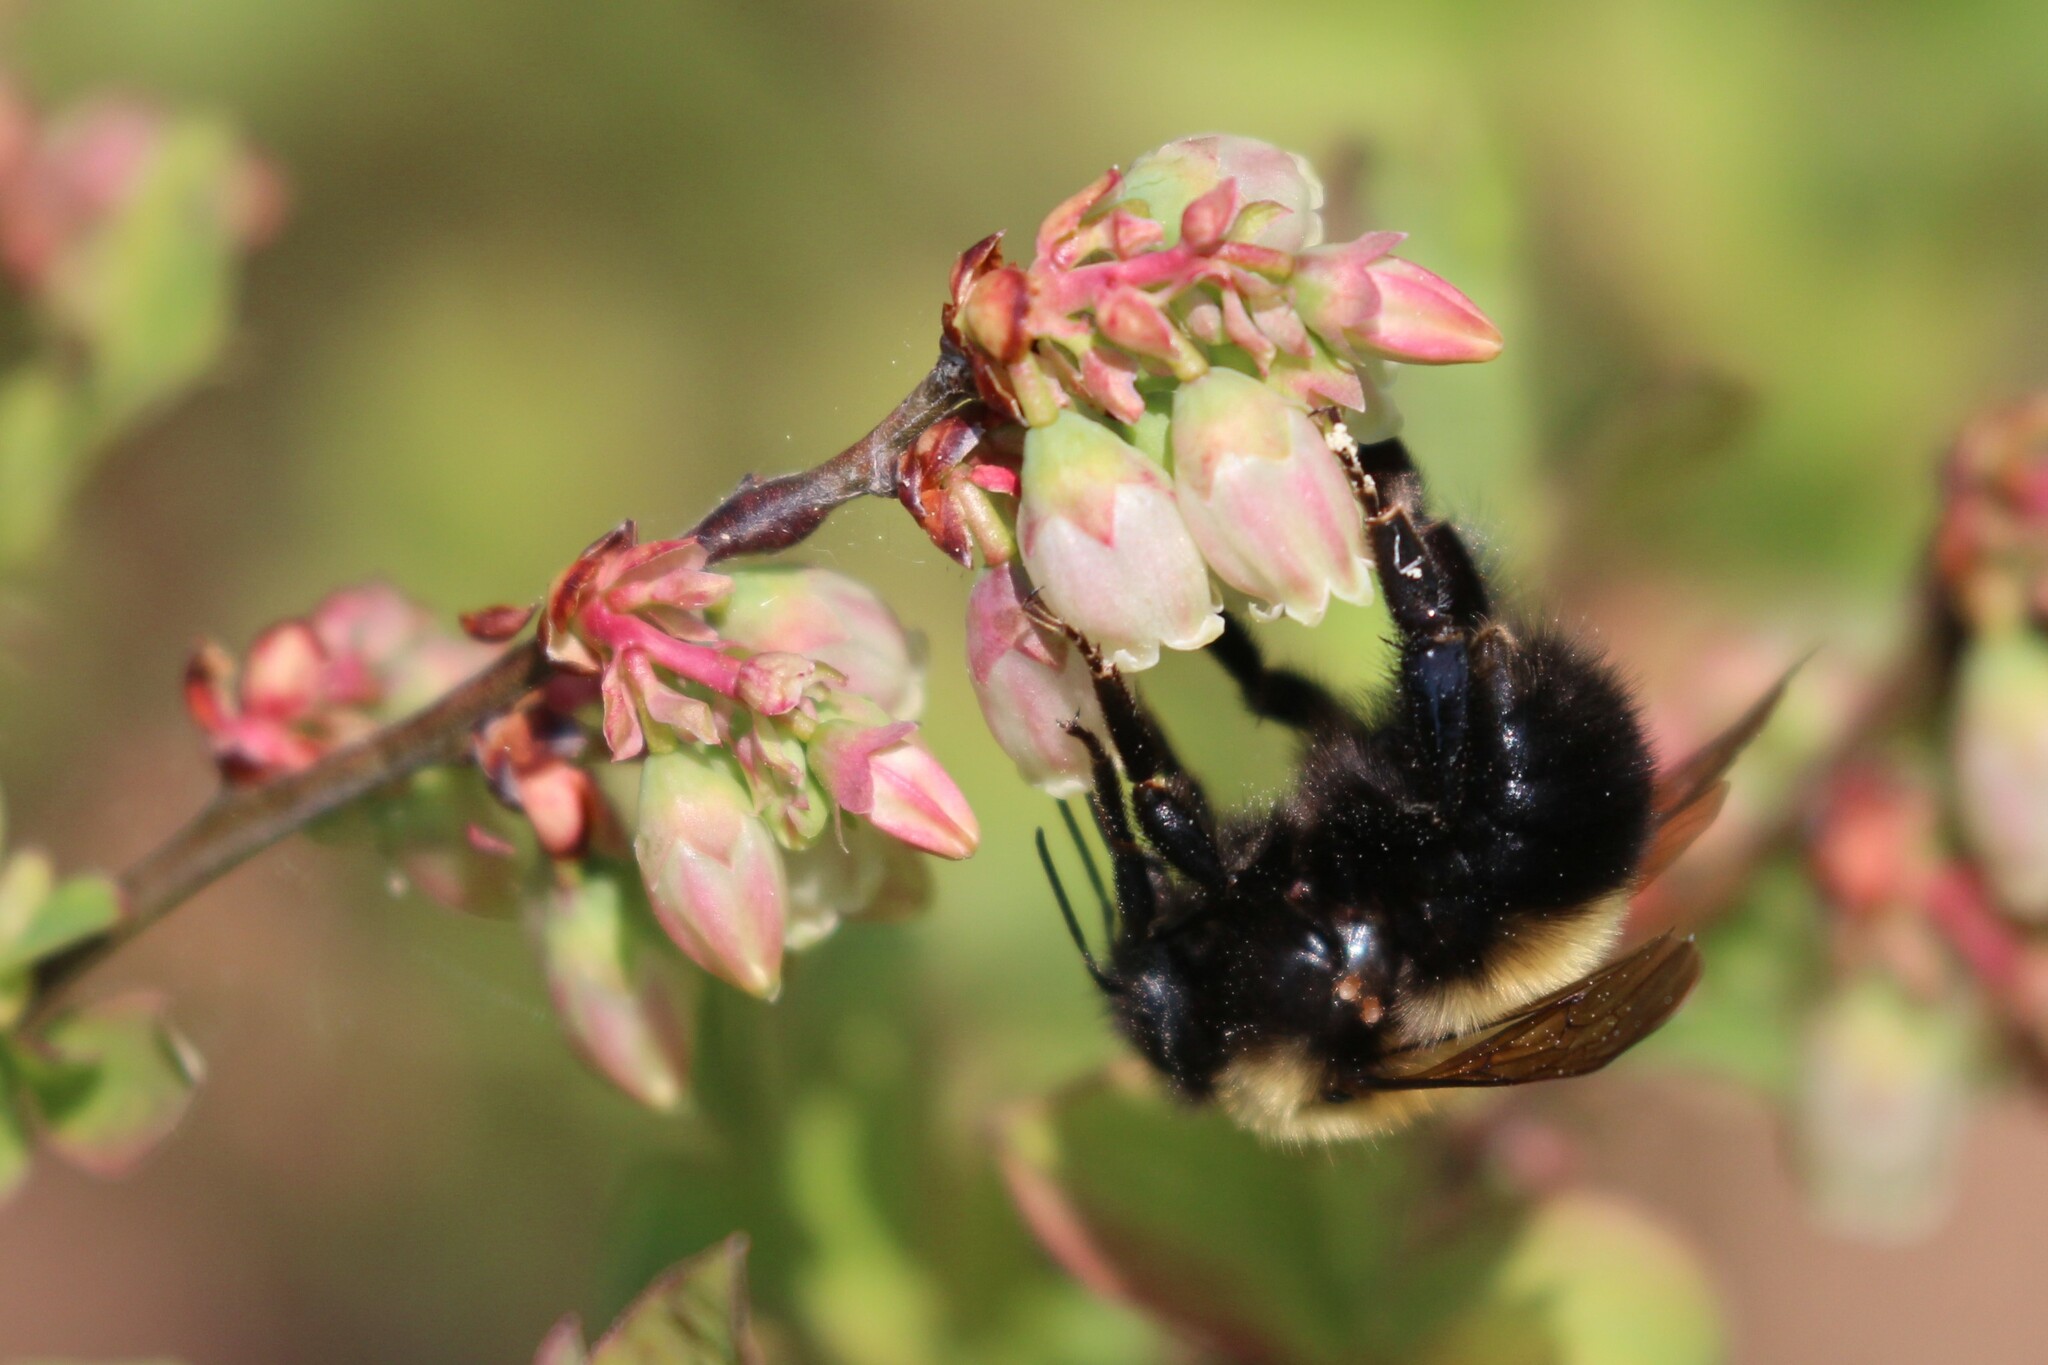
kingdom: Animalia
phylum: Arthropoda
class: Insecta
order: Hymenoptera
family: Apidae
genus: Bombus
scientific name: Bombus perplexus
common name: Confusing bumble bee
